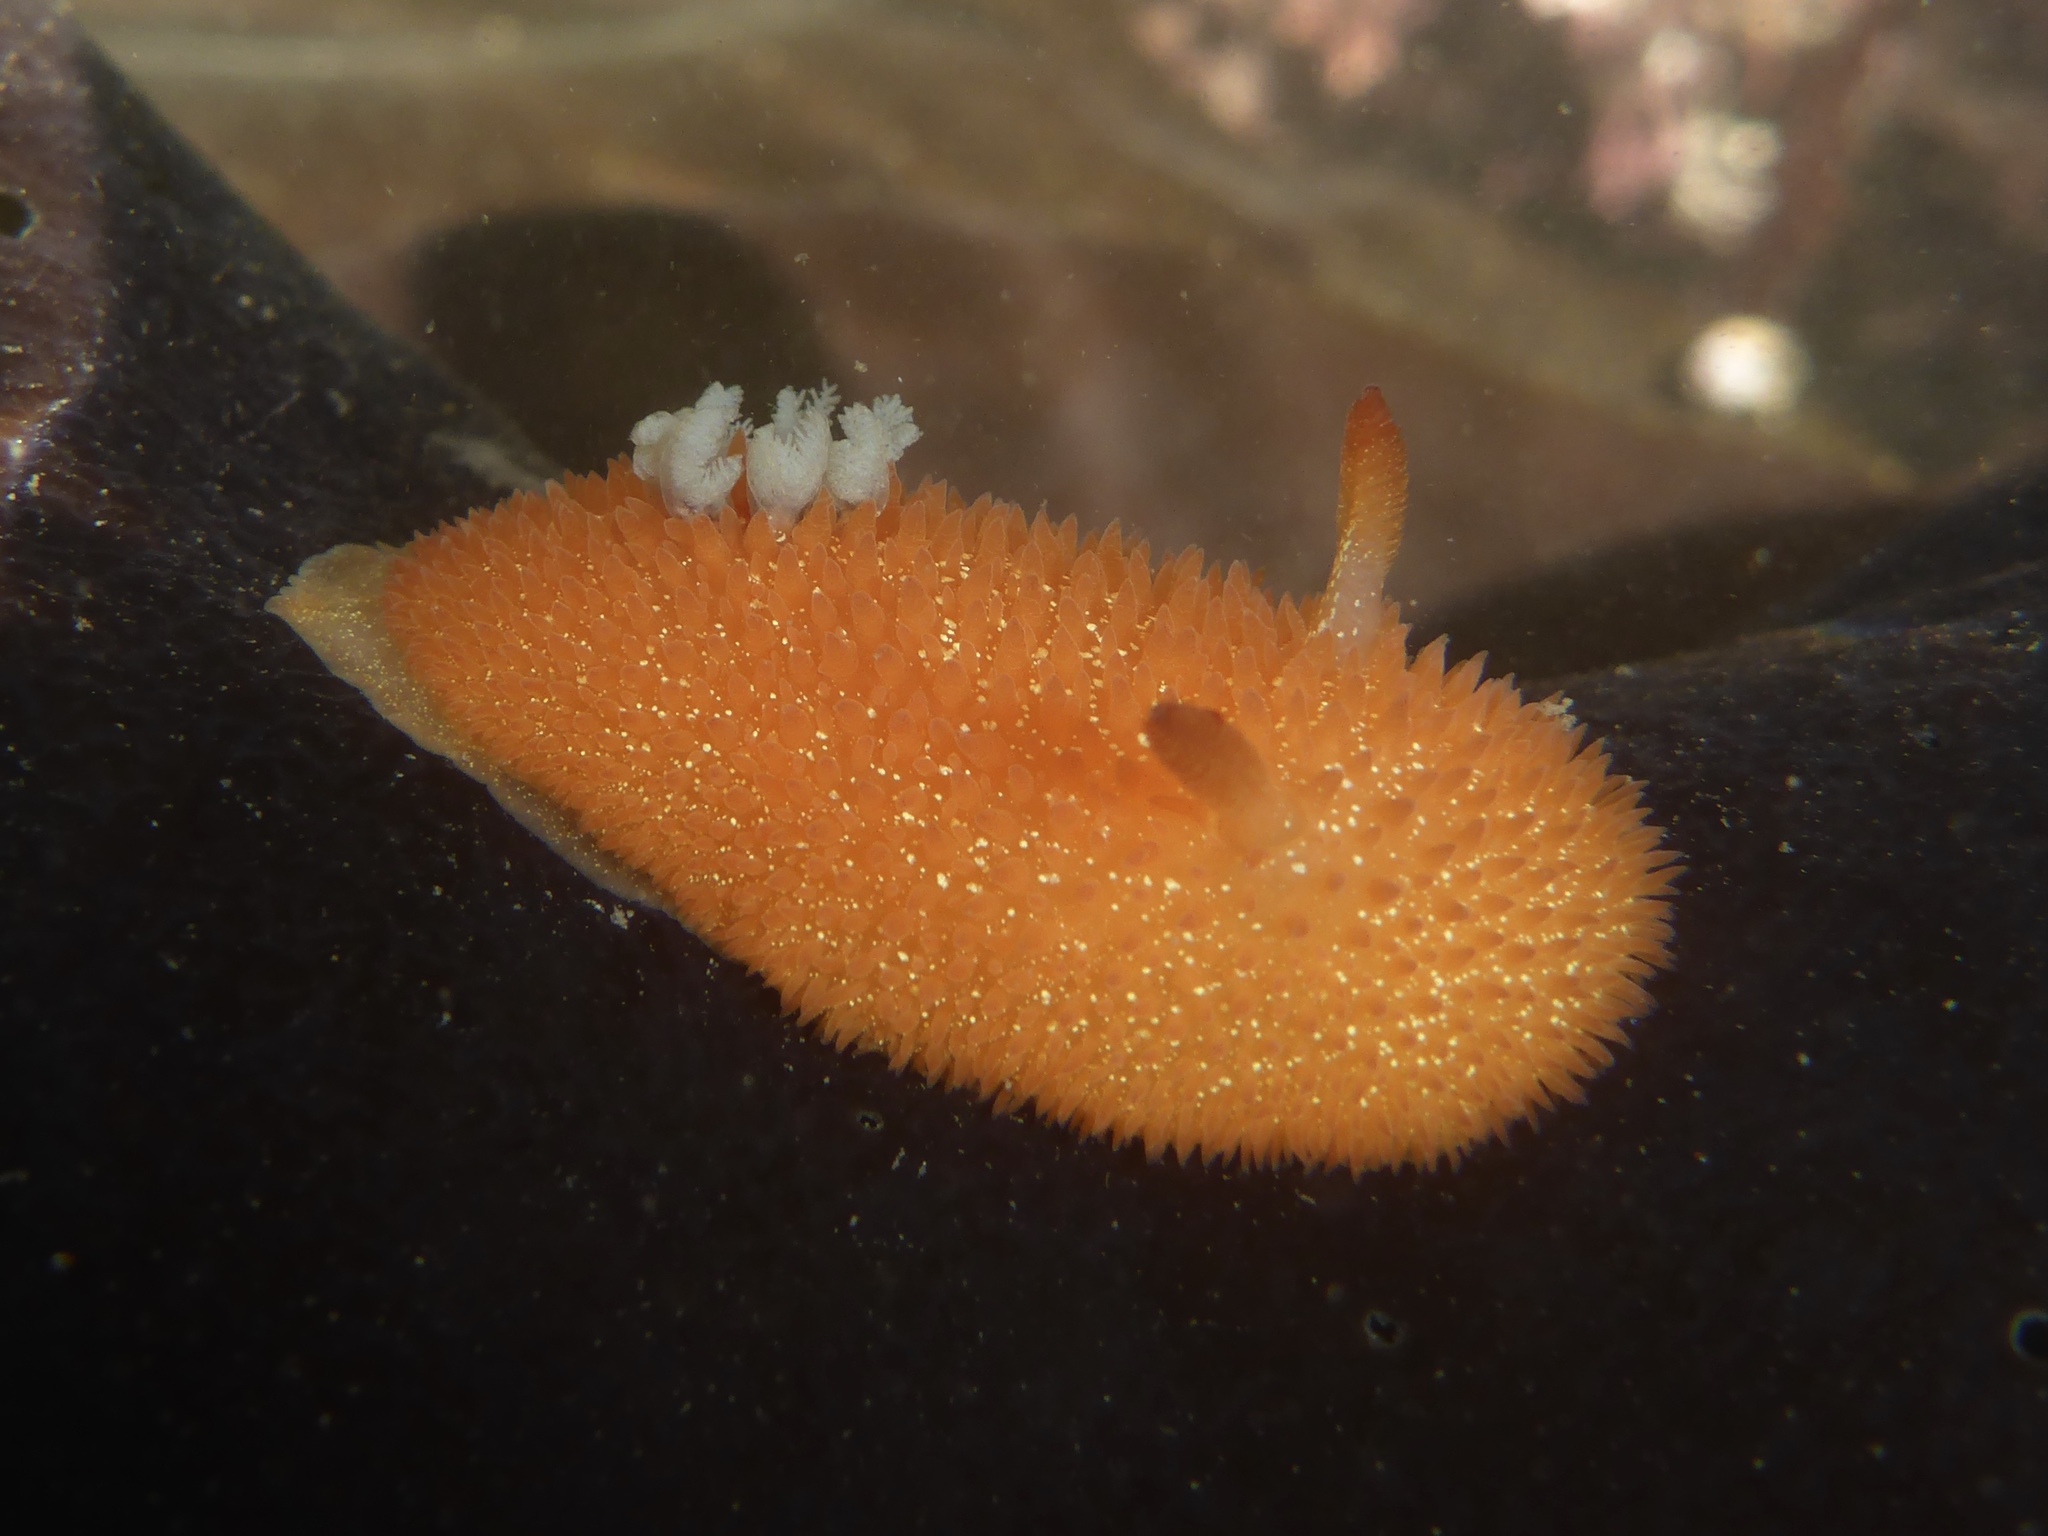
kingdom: Animalia
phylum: Mollusca
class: Gastropoda
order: Nudibranchia
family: Onchidorididae
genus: Acanthodoris
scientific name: Acanthodoris lutea
